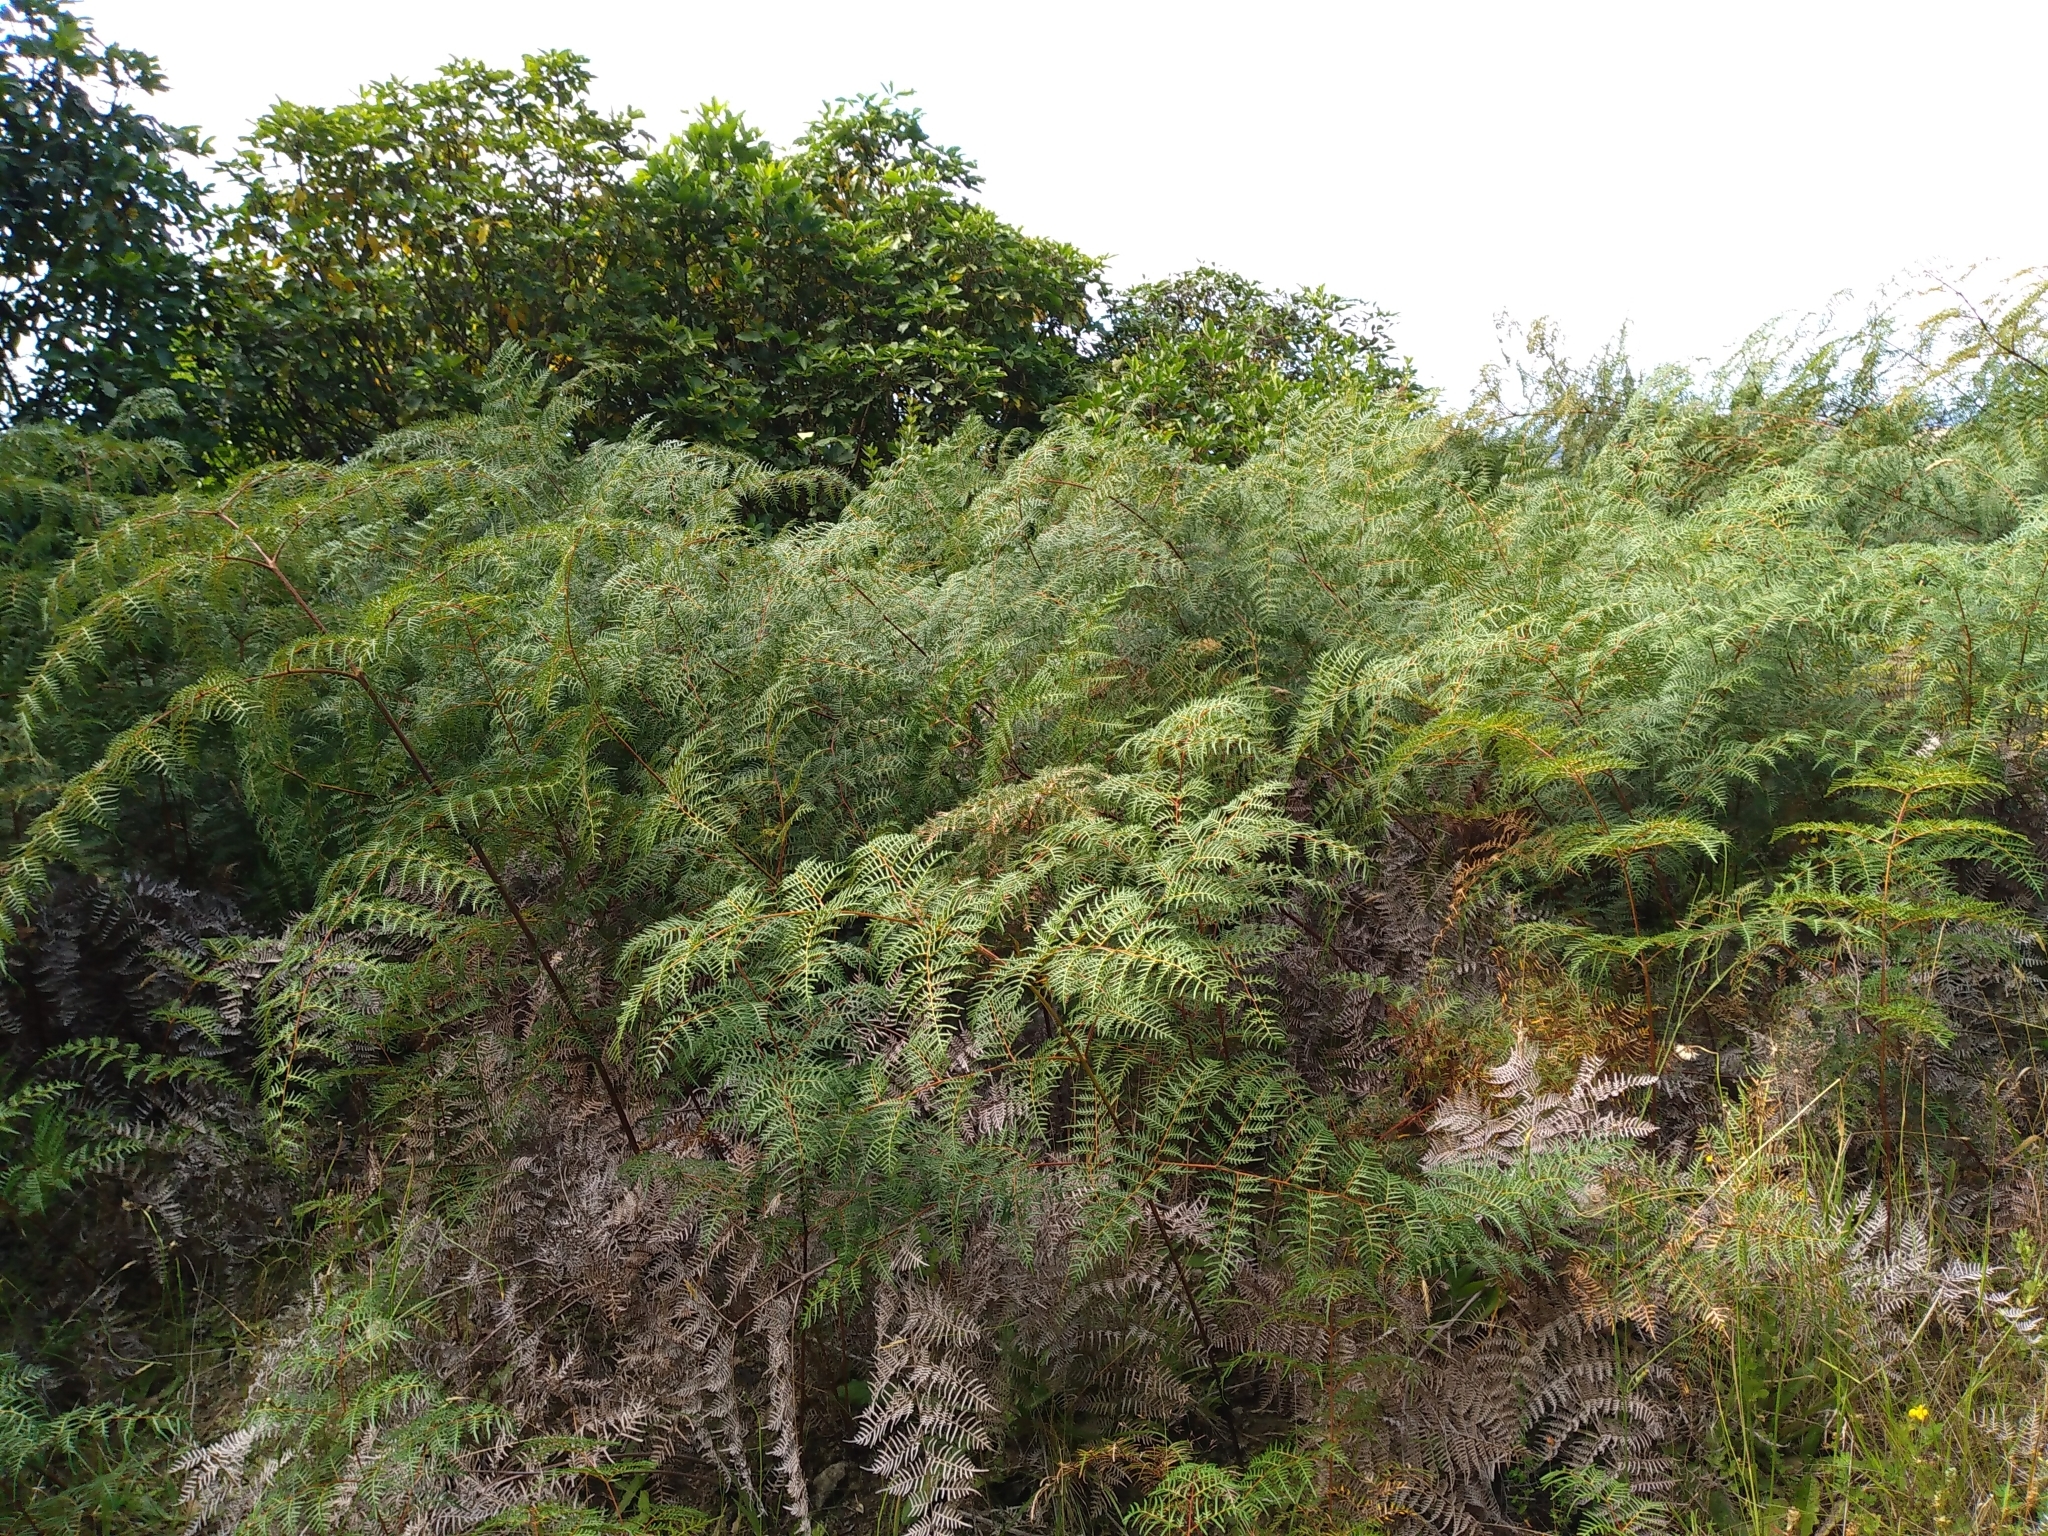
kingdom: Plantae
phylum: Tracheophyta
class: Polypodiopsida
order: Polypodiales
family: Dennstaedtiaceae
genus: Pteridium
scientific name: Pteridium esculentum
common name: Bracken fern
